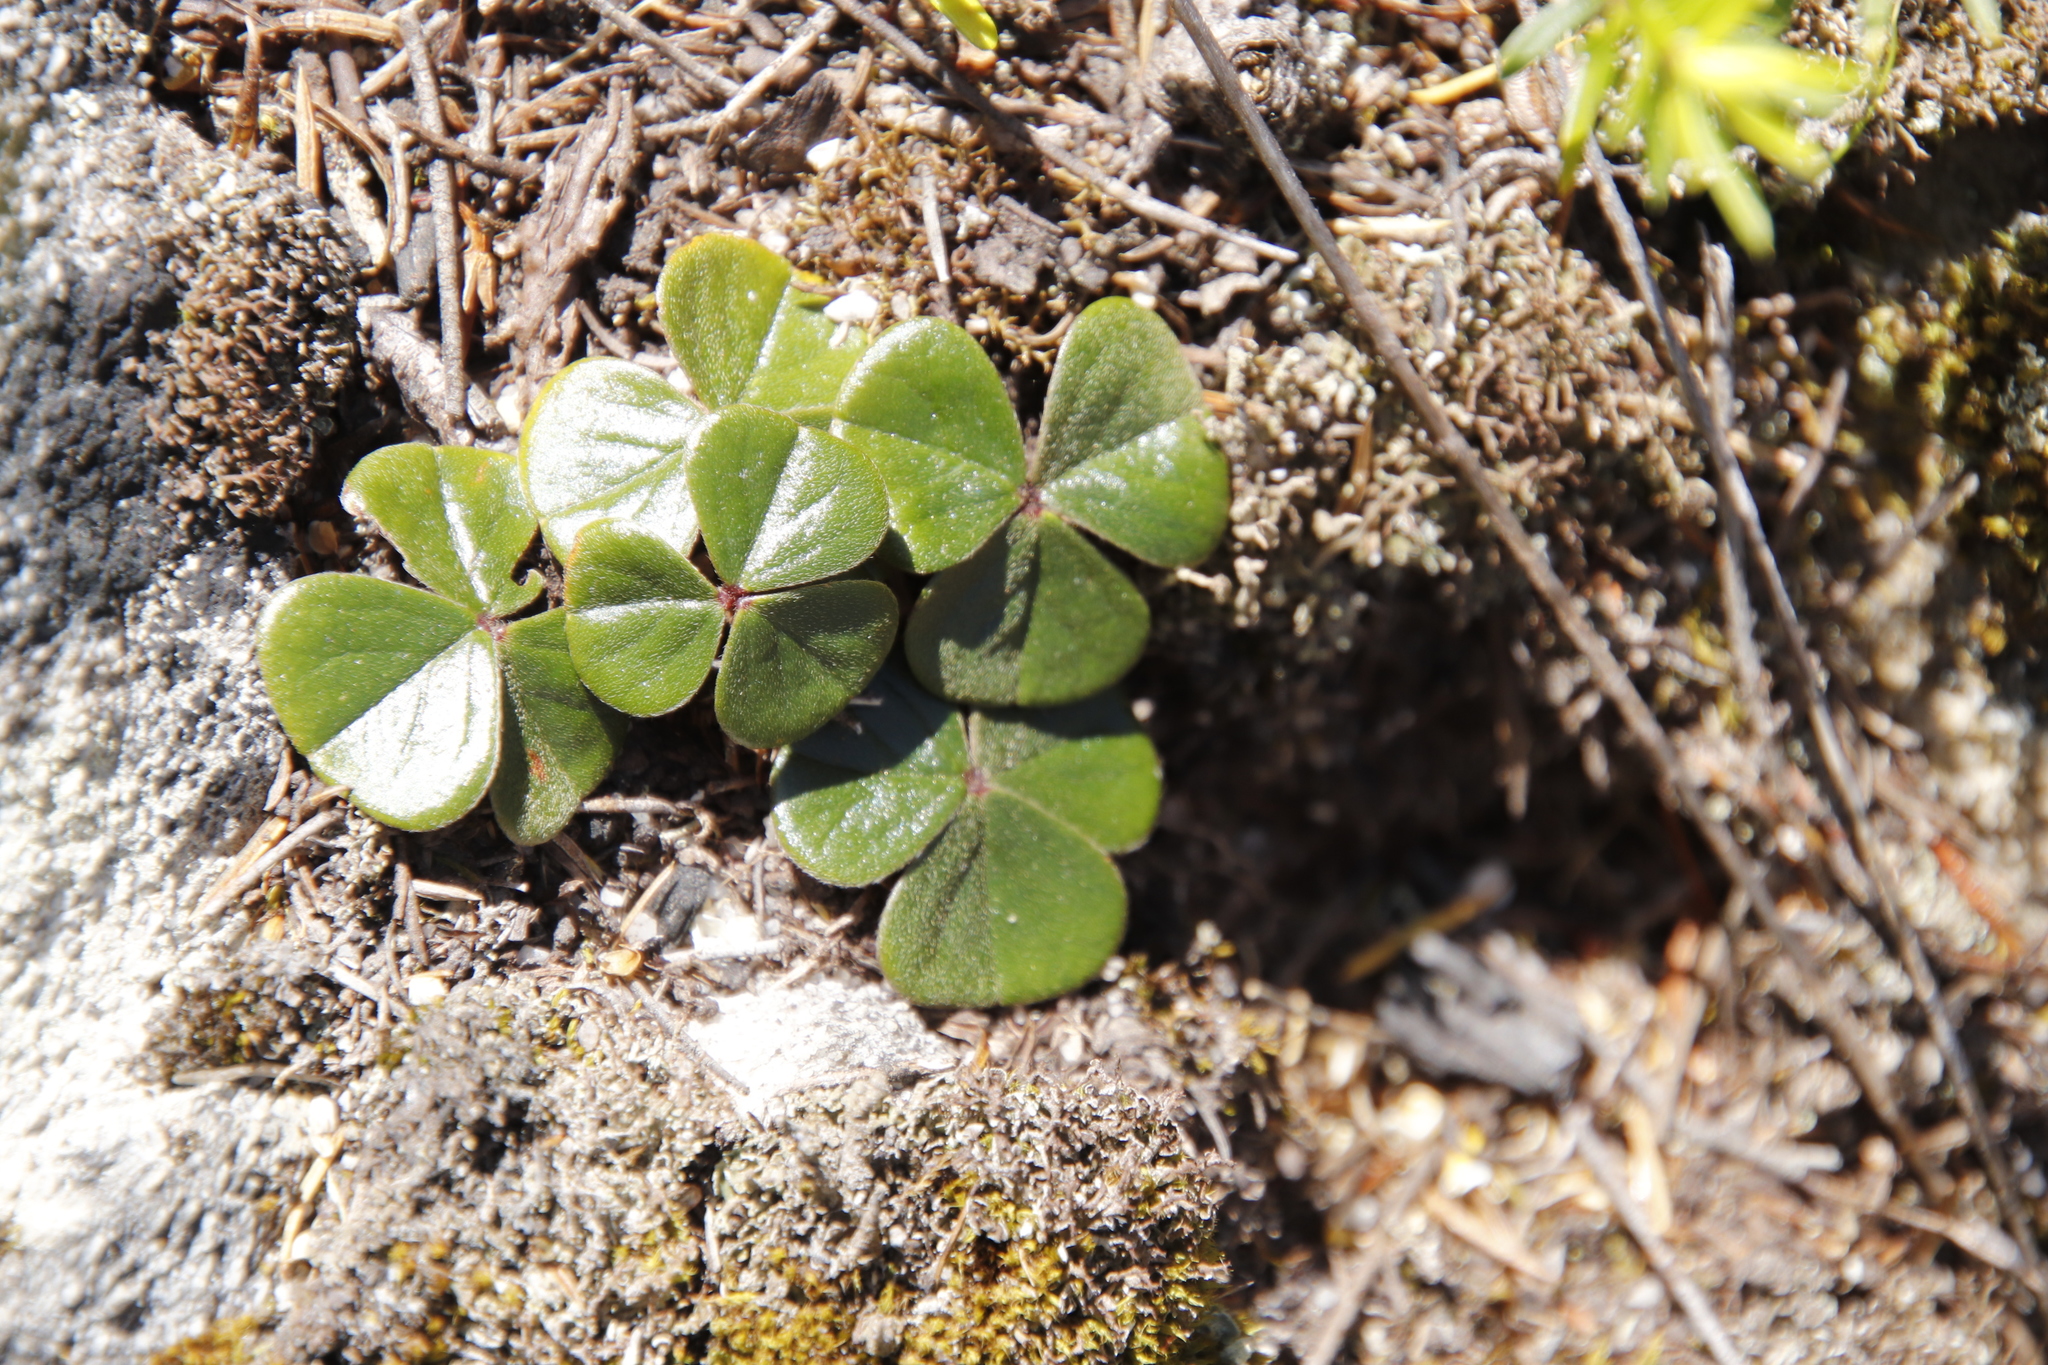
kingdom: Plantae
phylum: Tracheophyta
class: Magnoliopsida
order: Oxalidales
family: Oxalidaceae
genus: Oxalis
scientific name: Oxalis truncatula
